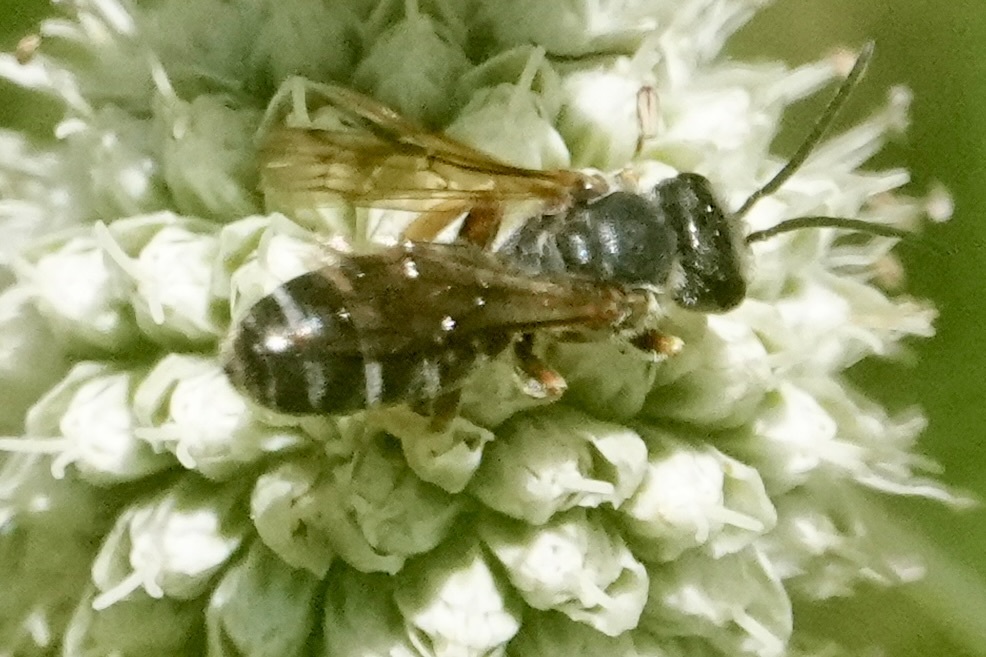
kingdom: Animalia
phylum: Arthropoda
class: Insecta
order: Hymenoptera
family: Halictidae
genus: Halictus
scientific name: Halictus parallelus
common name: Parallel-striped sweat bee
